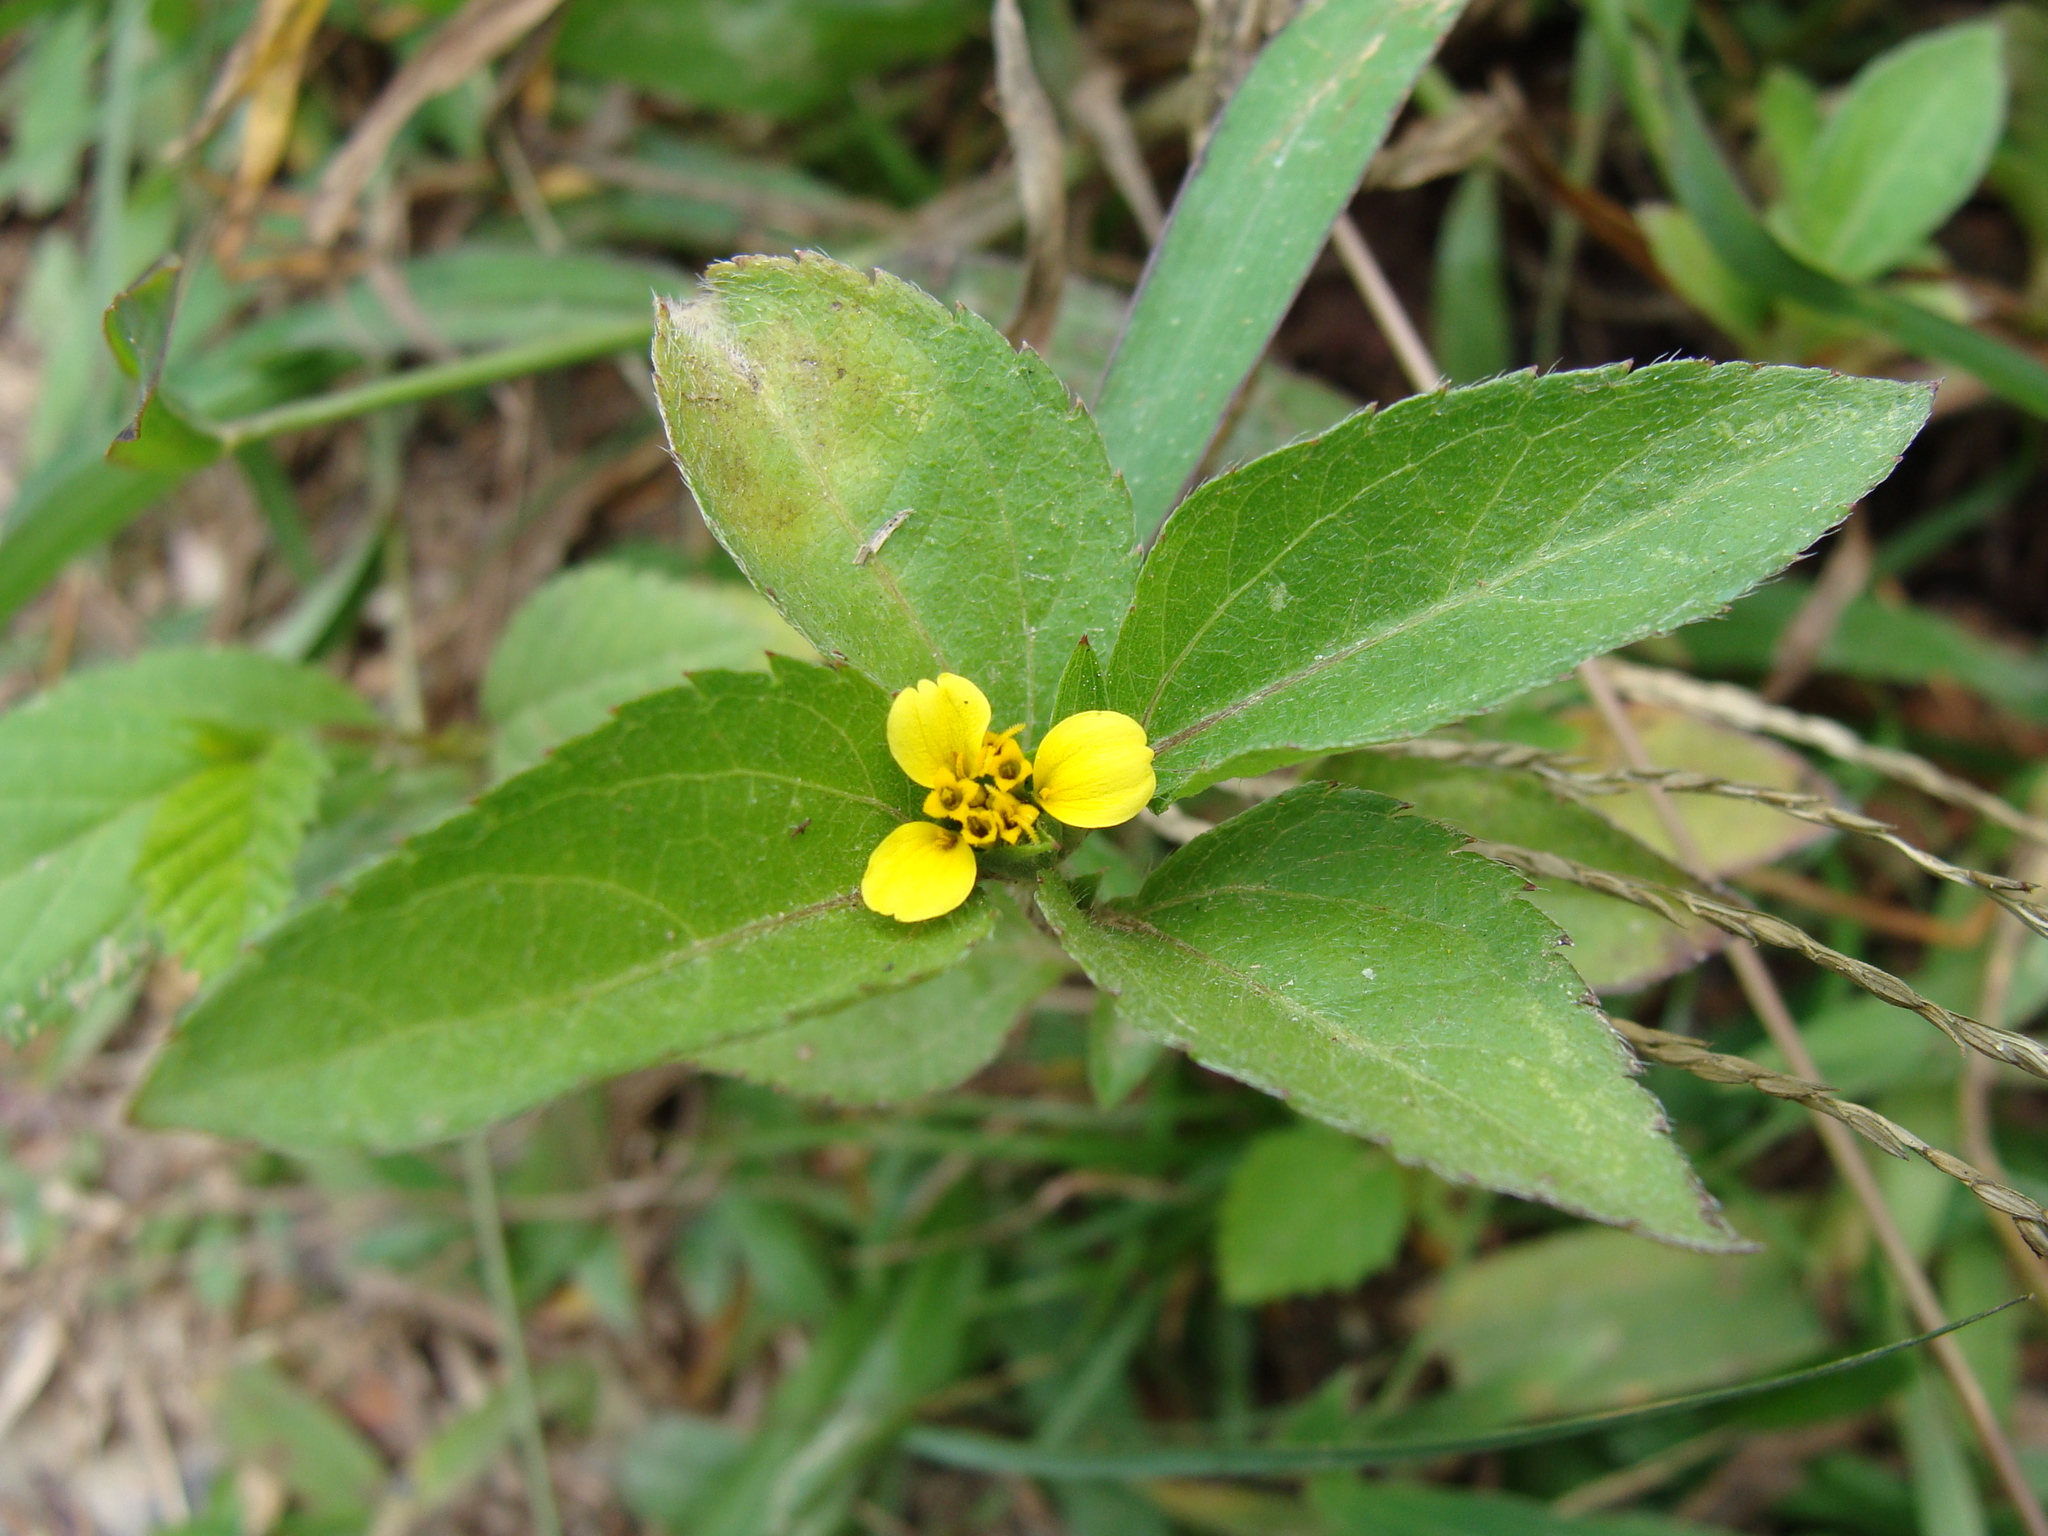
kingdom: Plantae
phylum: Tracheophyta
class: Magnoliopsida
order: Asterales
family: Asteraceae
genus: Calyptocarpus
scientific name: Calyptocarpus vialis
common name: Straggler daisy
